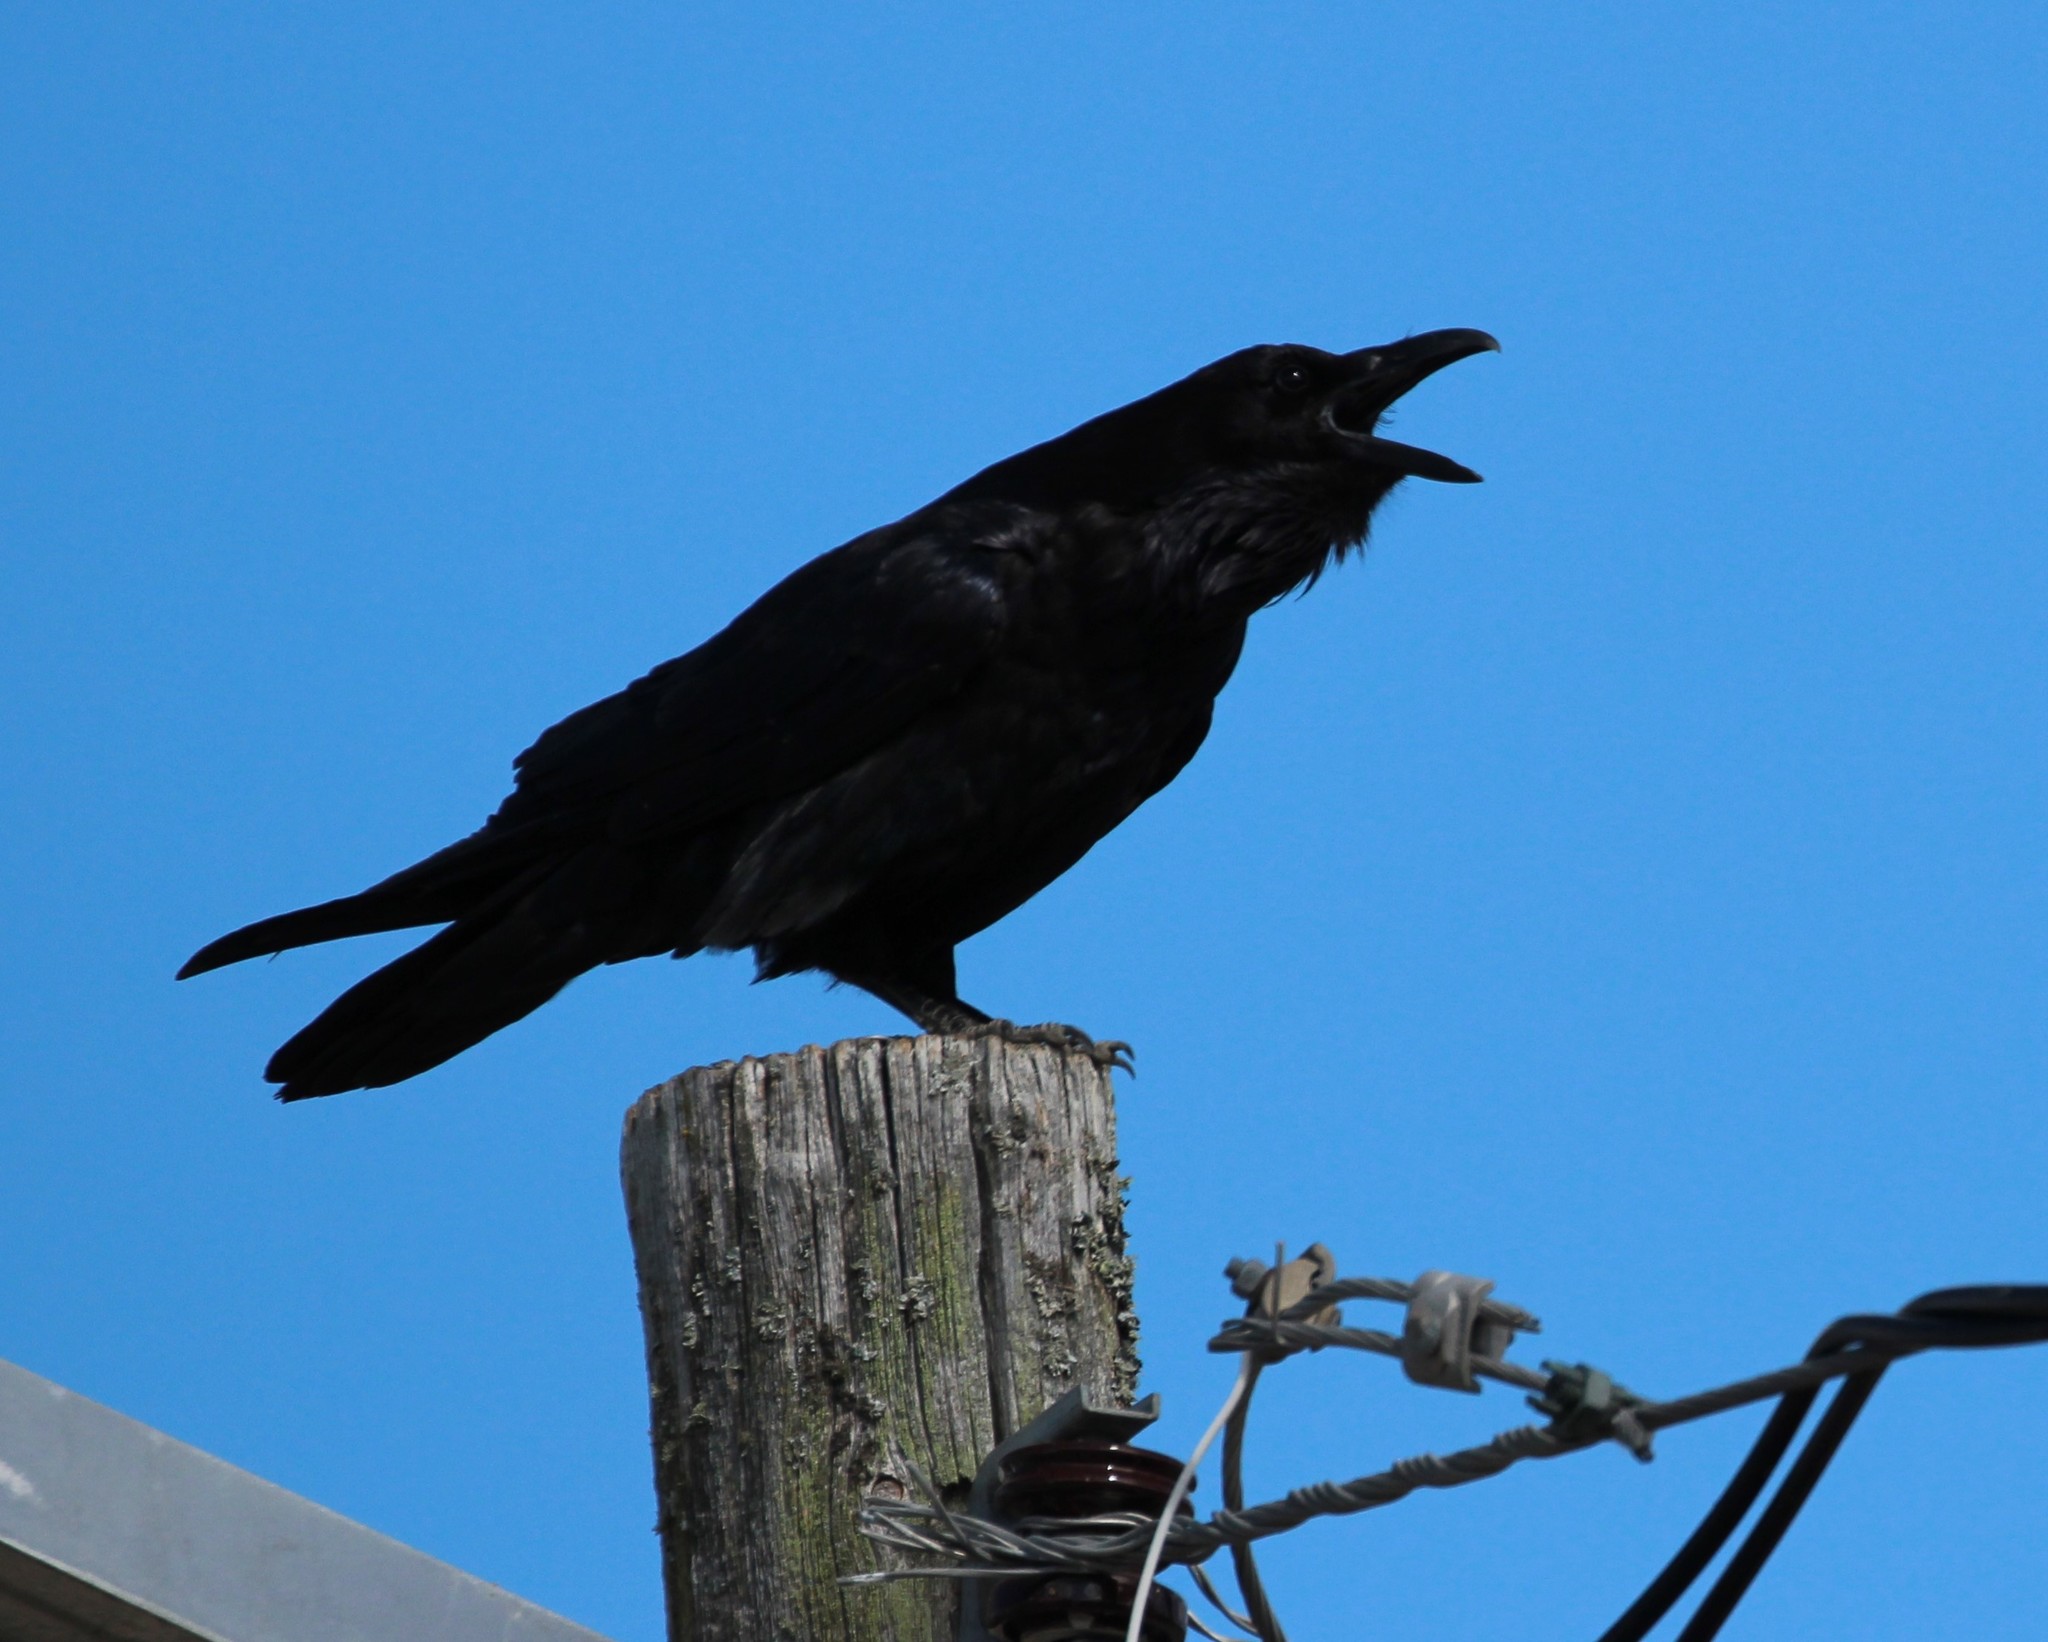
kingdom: Animalia
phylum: Chordata
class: Aves
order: Passeriformes
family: Corvidae
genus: Corvus
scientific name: Corvus corax
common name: Common raven
